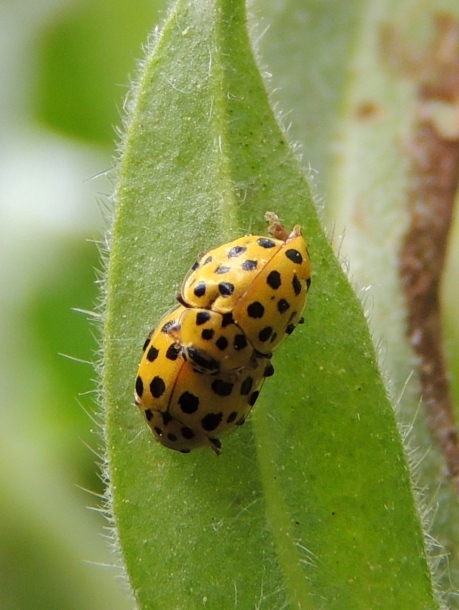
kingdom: Animalia
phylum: Arthropoda
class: Insecta
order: Coleoptera
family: Coccinellidae
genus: Psyllobora
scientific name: Psyllobora vigintiduopunctata
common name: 22-spot ladybird
